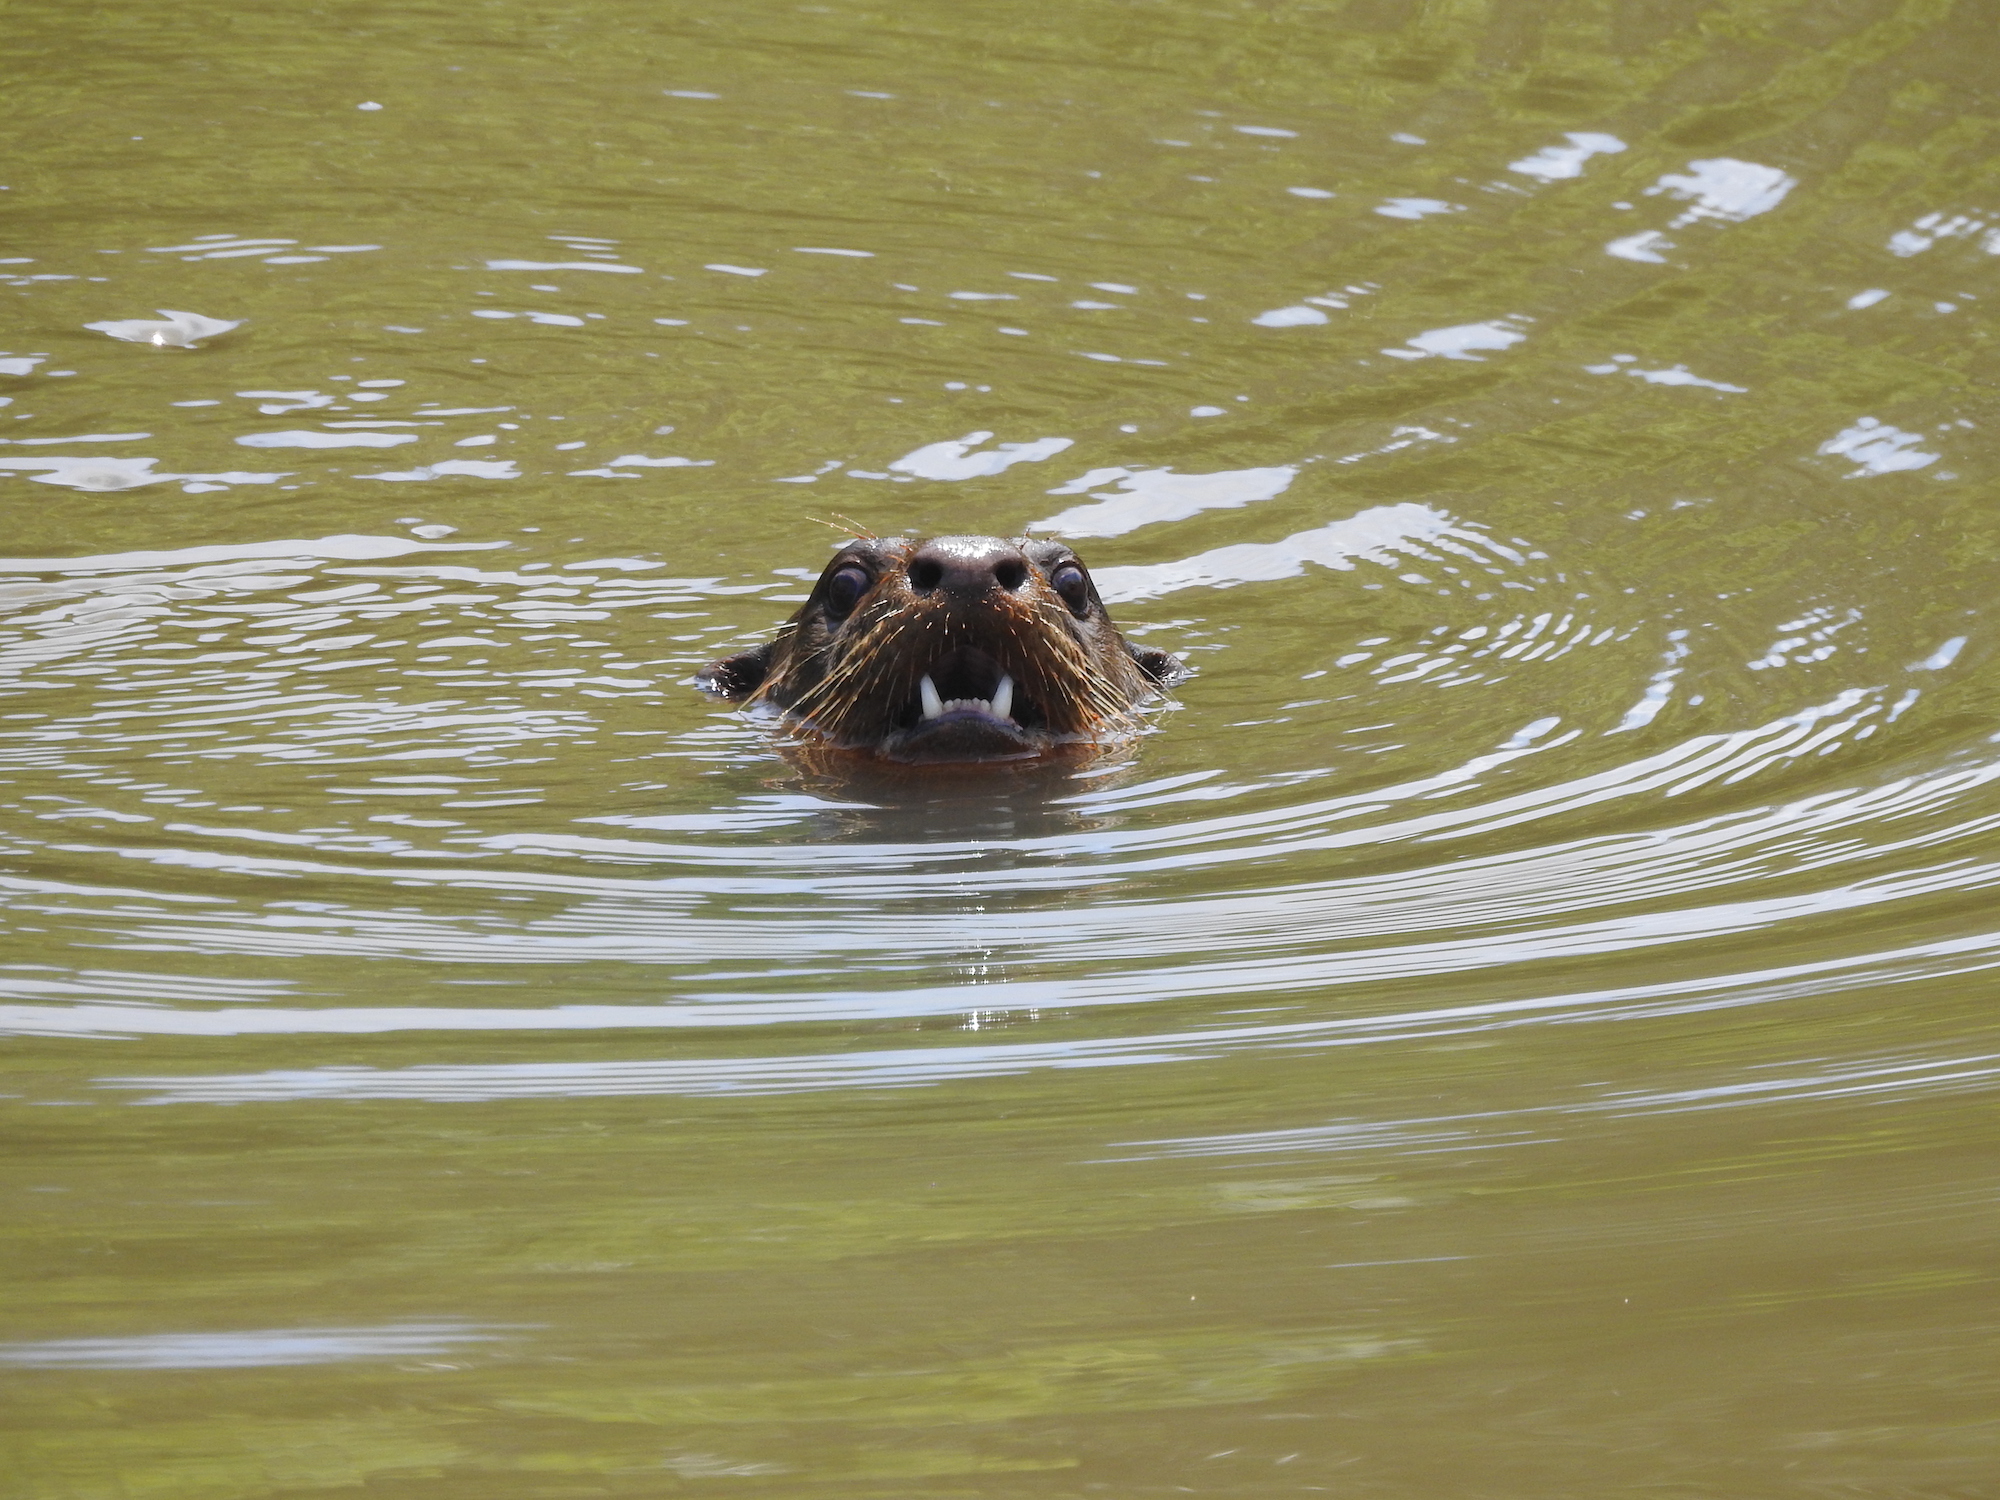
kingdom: Animalia
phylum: Chordata
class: Mammalia
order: Carnivora
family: Mustelidae
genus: Lutrogale
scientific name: Lutrogale perspicillata
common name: Smooth-coated otter
